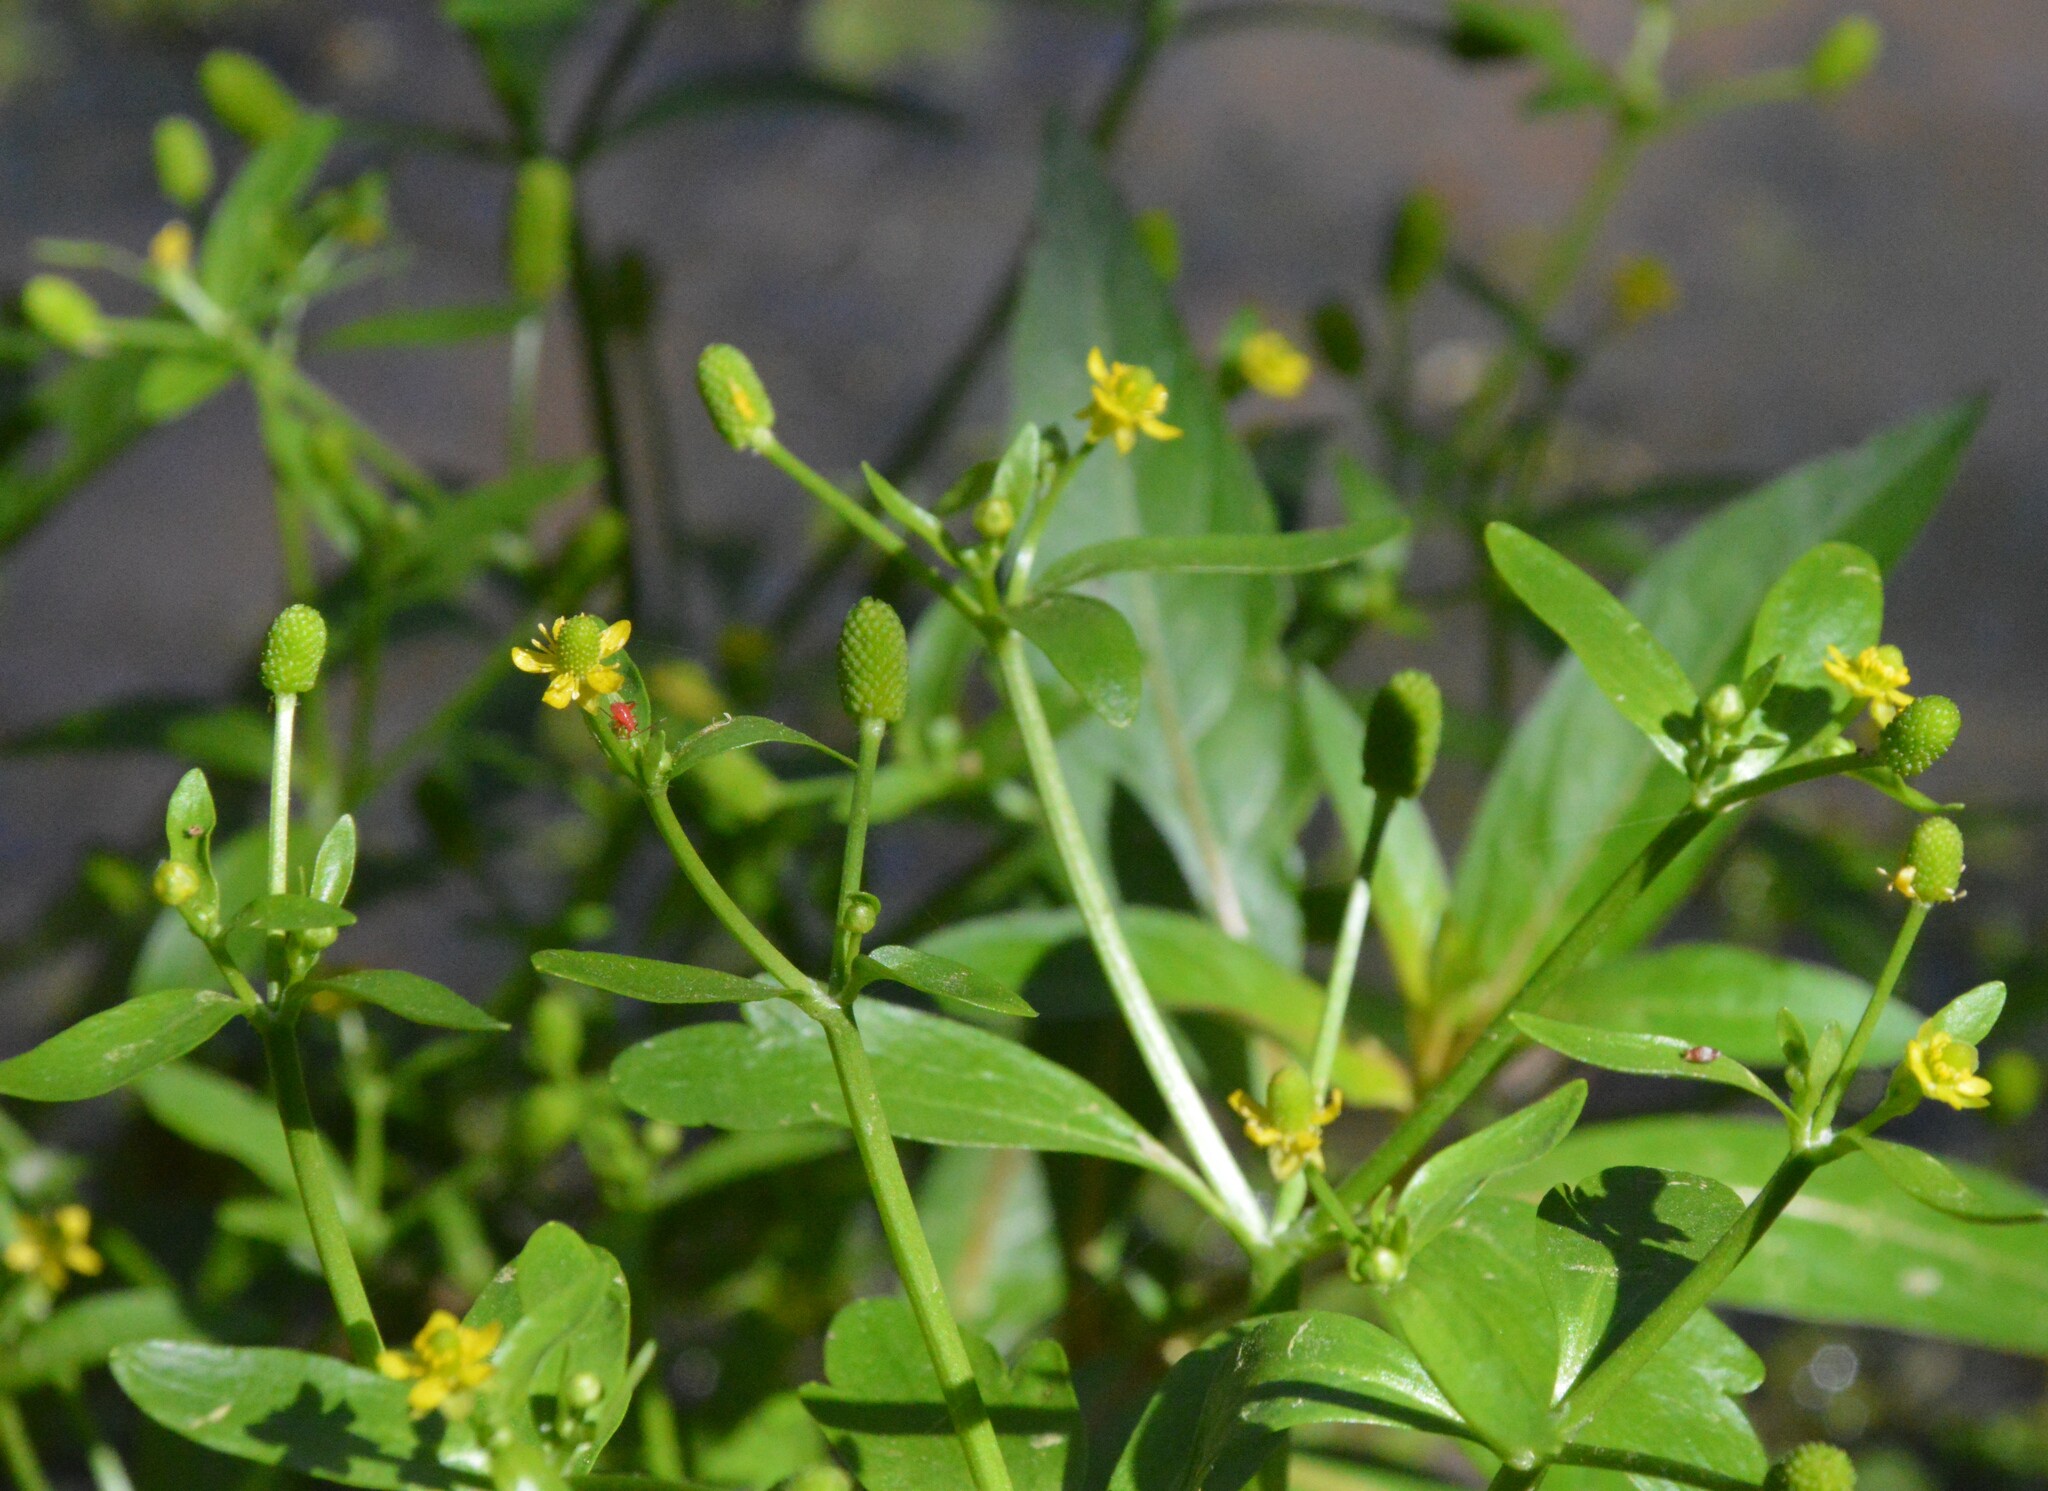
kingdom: Plantae
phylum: Tracheophyta
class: Magnoliopsida
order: Ranunculales
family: Ranunculaceae
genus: Ranunculus
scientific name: Ranunculus sceleratus
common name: Celery-leaved buttercup
